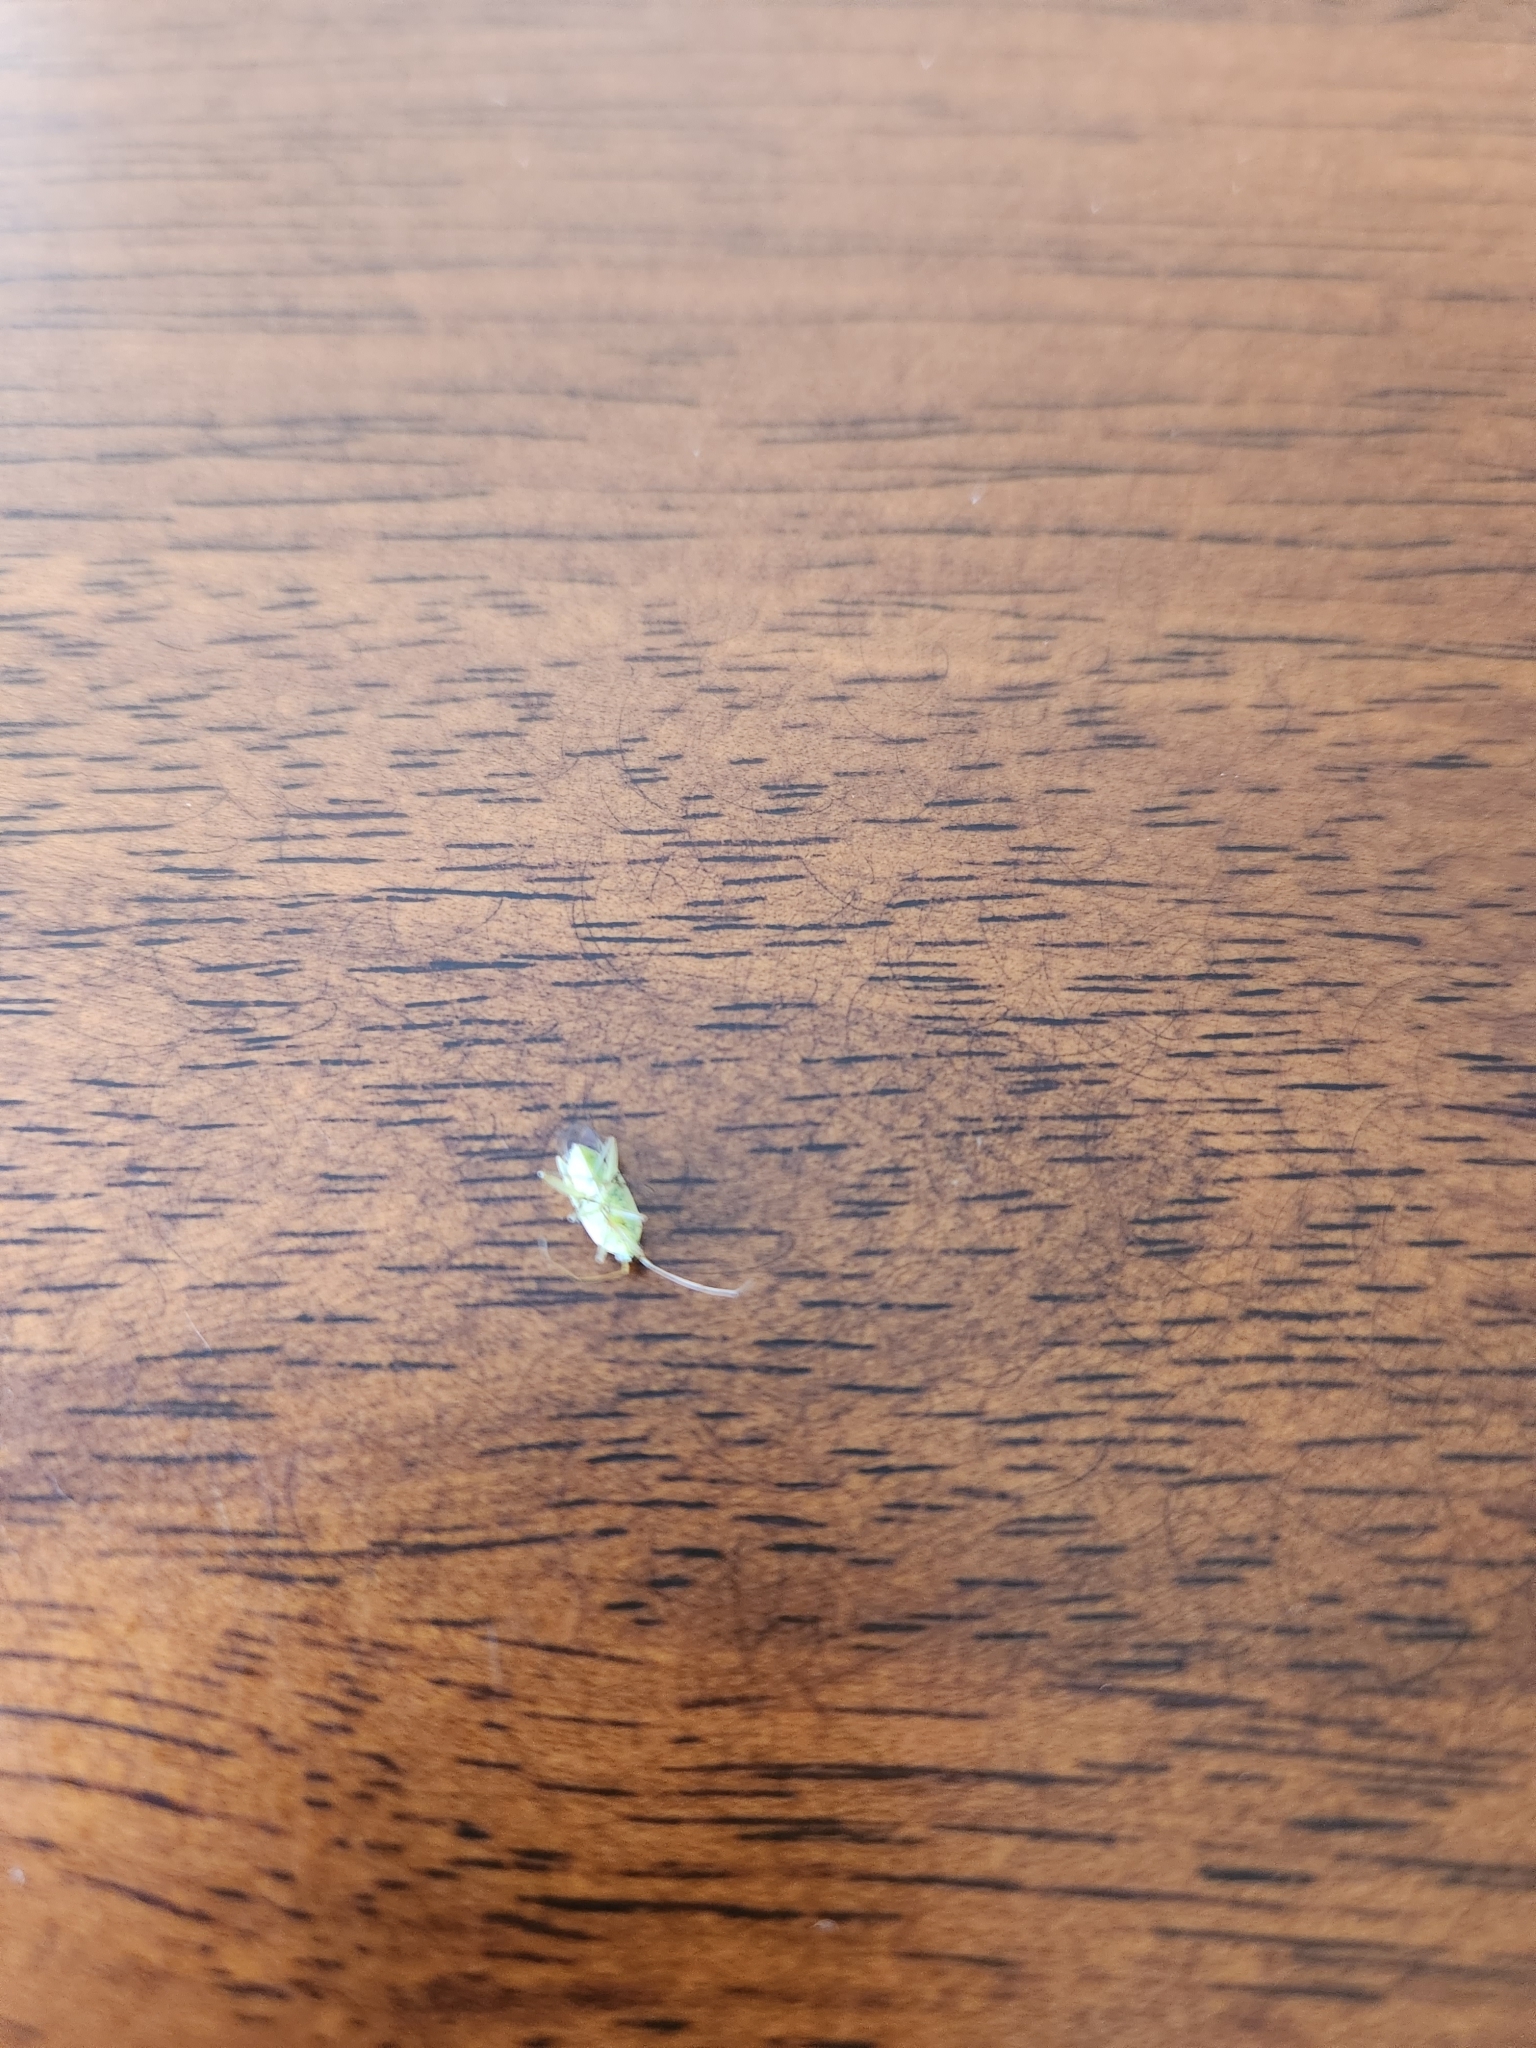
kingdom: Animalia
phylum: Arthropoda
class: Insecta
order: Hemiptera
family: Miridae
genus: Stenotus
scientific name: Stenotus binotatus
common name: Plant bug
